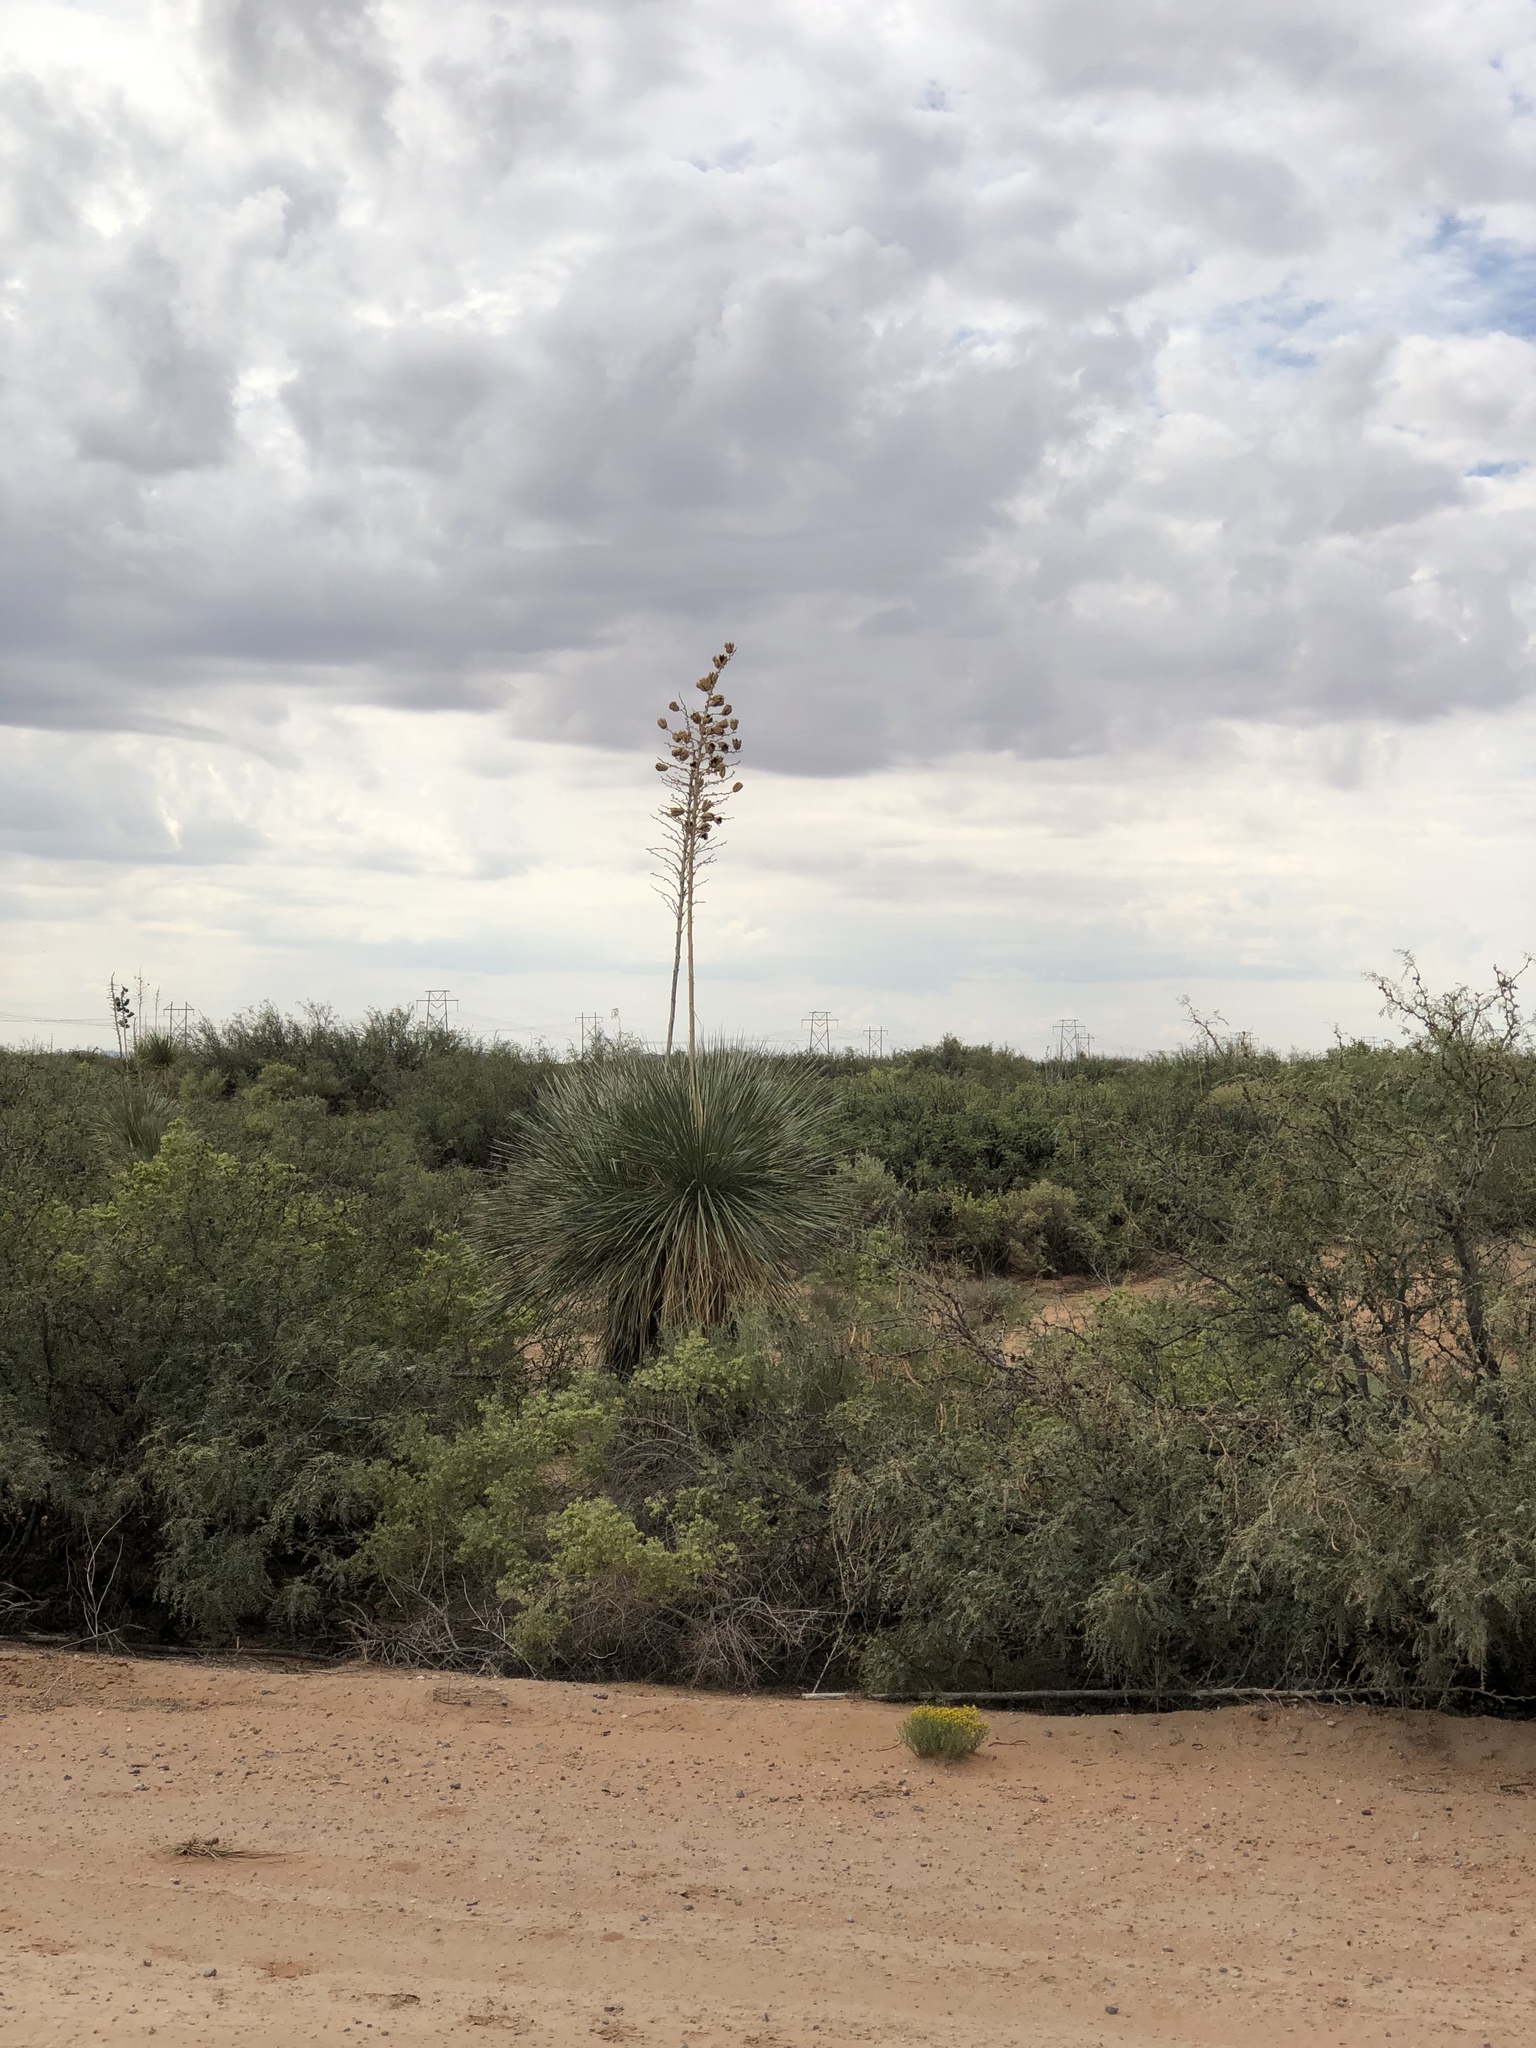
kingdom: Plantae
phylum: Tracheophyta
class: Liliopsida
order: Asparagales
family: Asparagaceae
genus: Yucca
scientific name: Yucca elata
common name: Palmella
